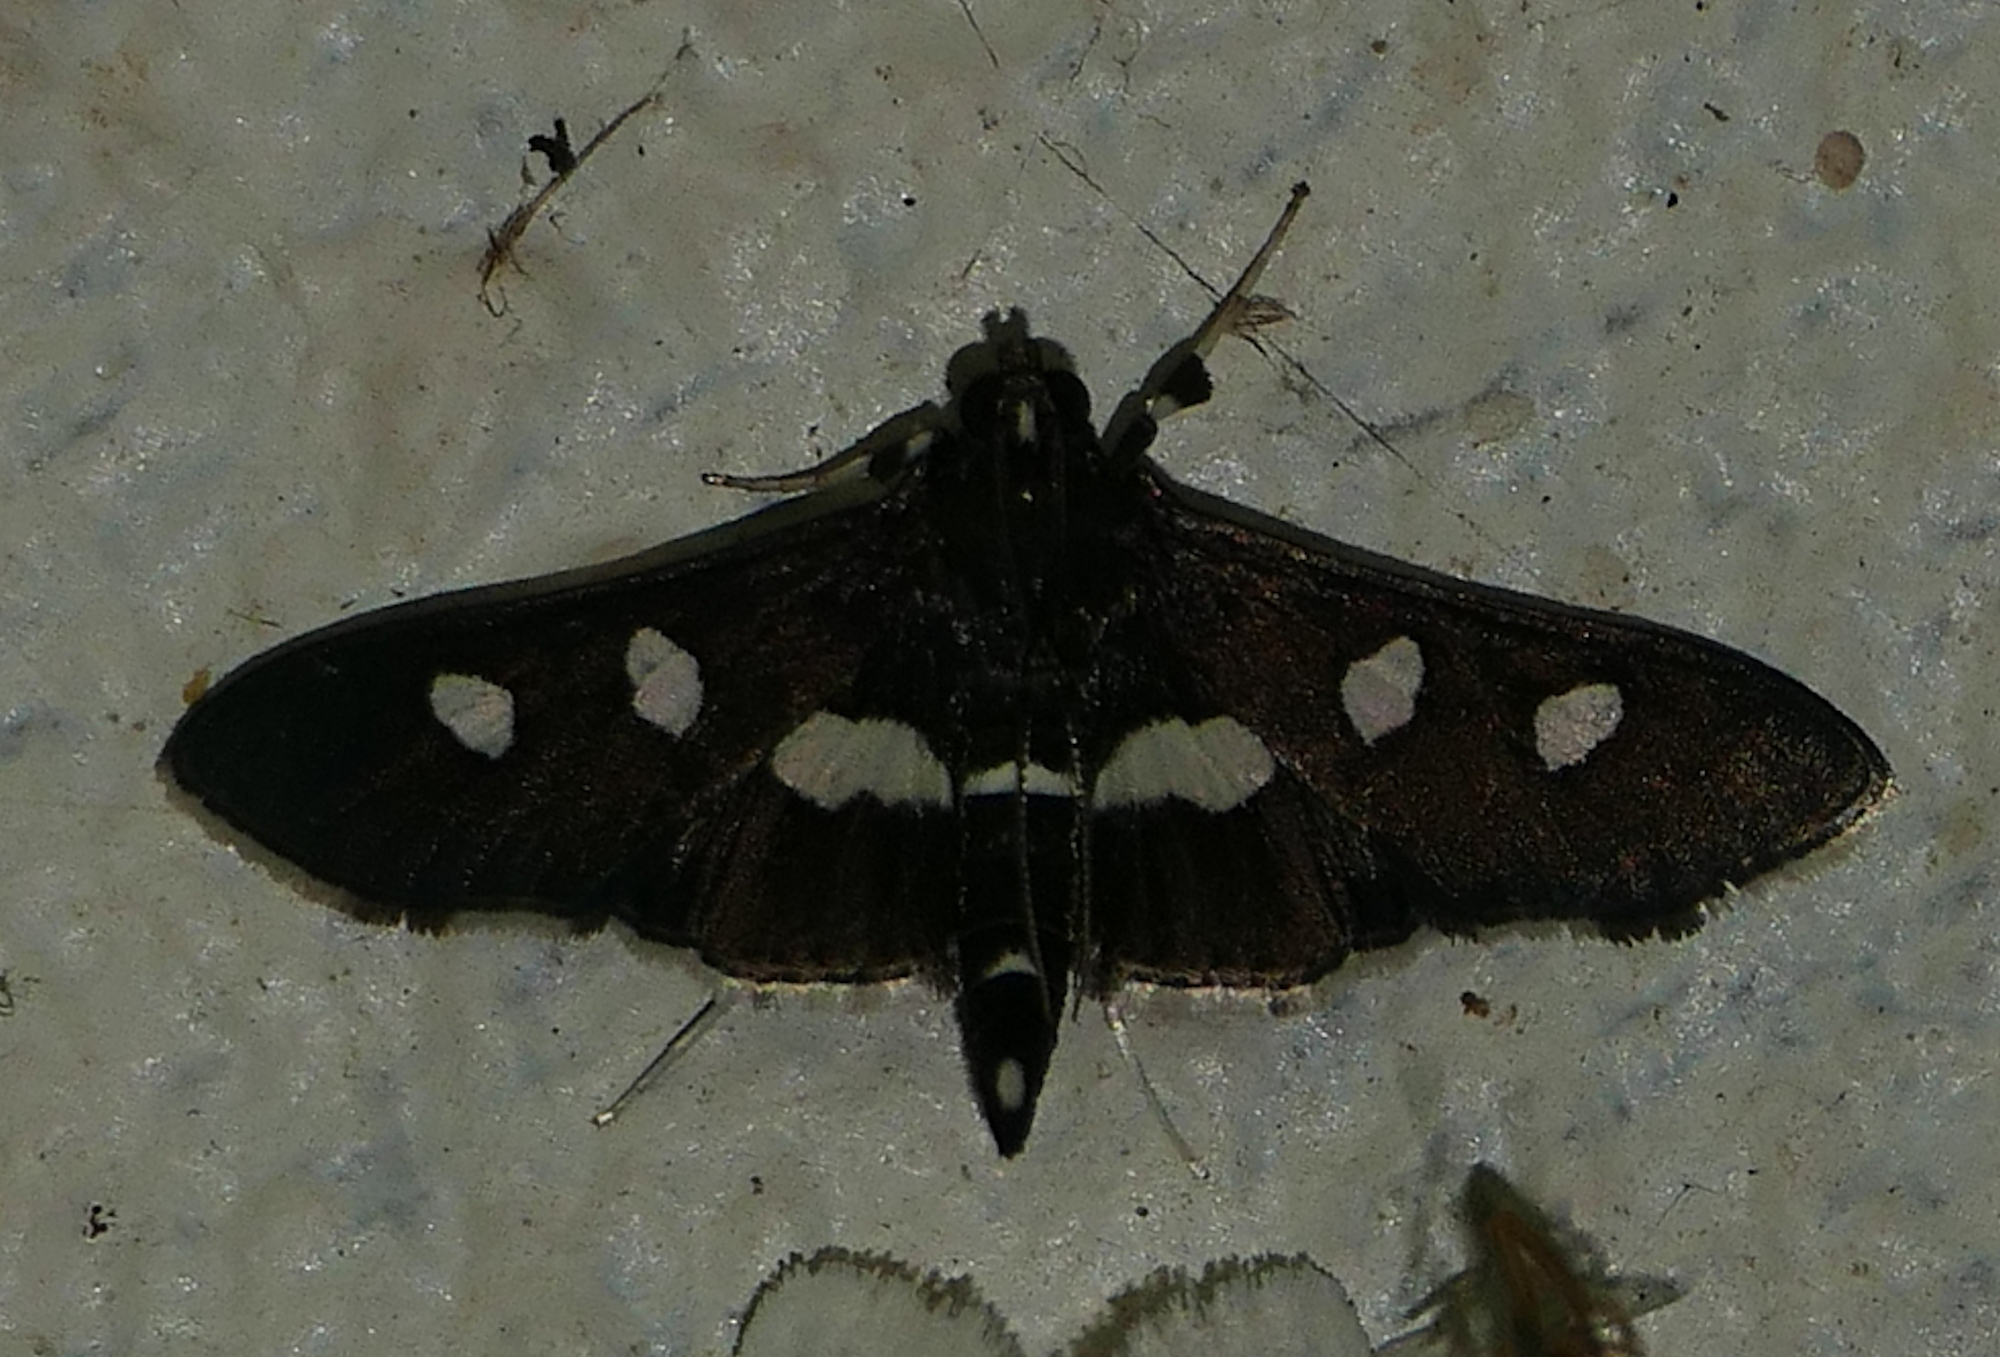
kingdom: Animalia
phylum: Arthropoda
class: Insecta
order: Lepidoptera
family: Crambidae
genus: Desmia
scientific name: Desmia
